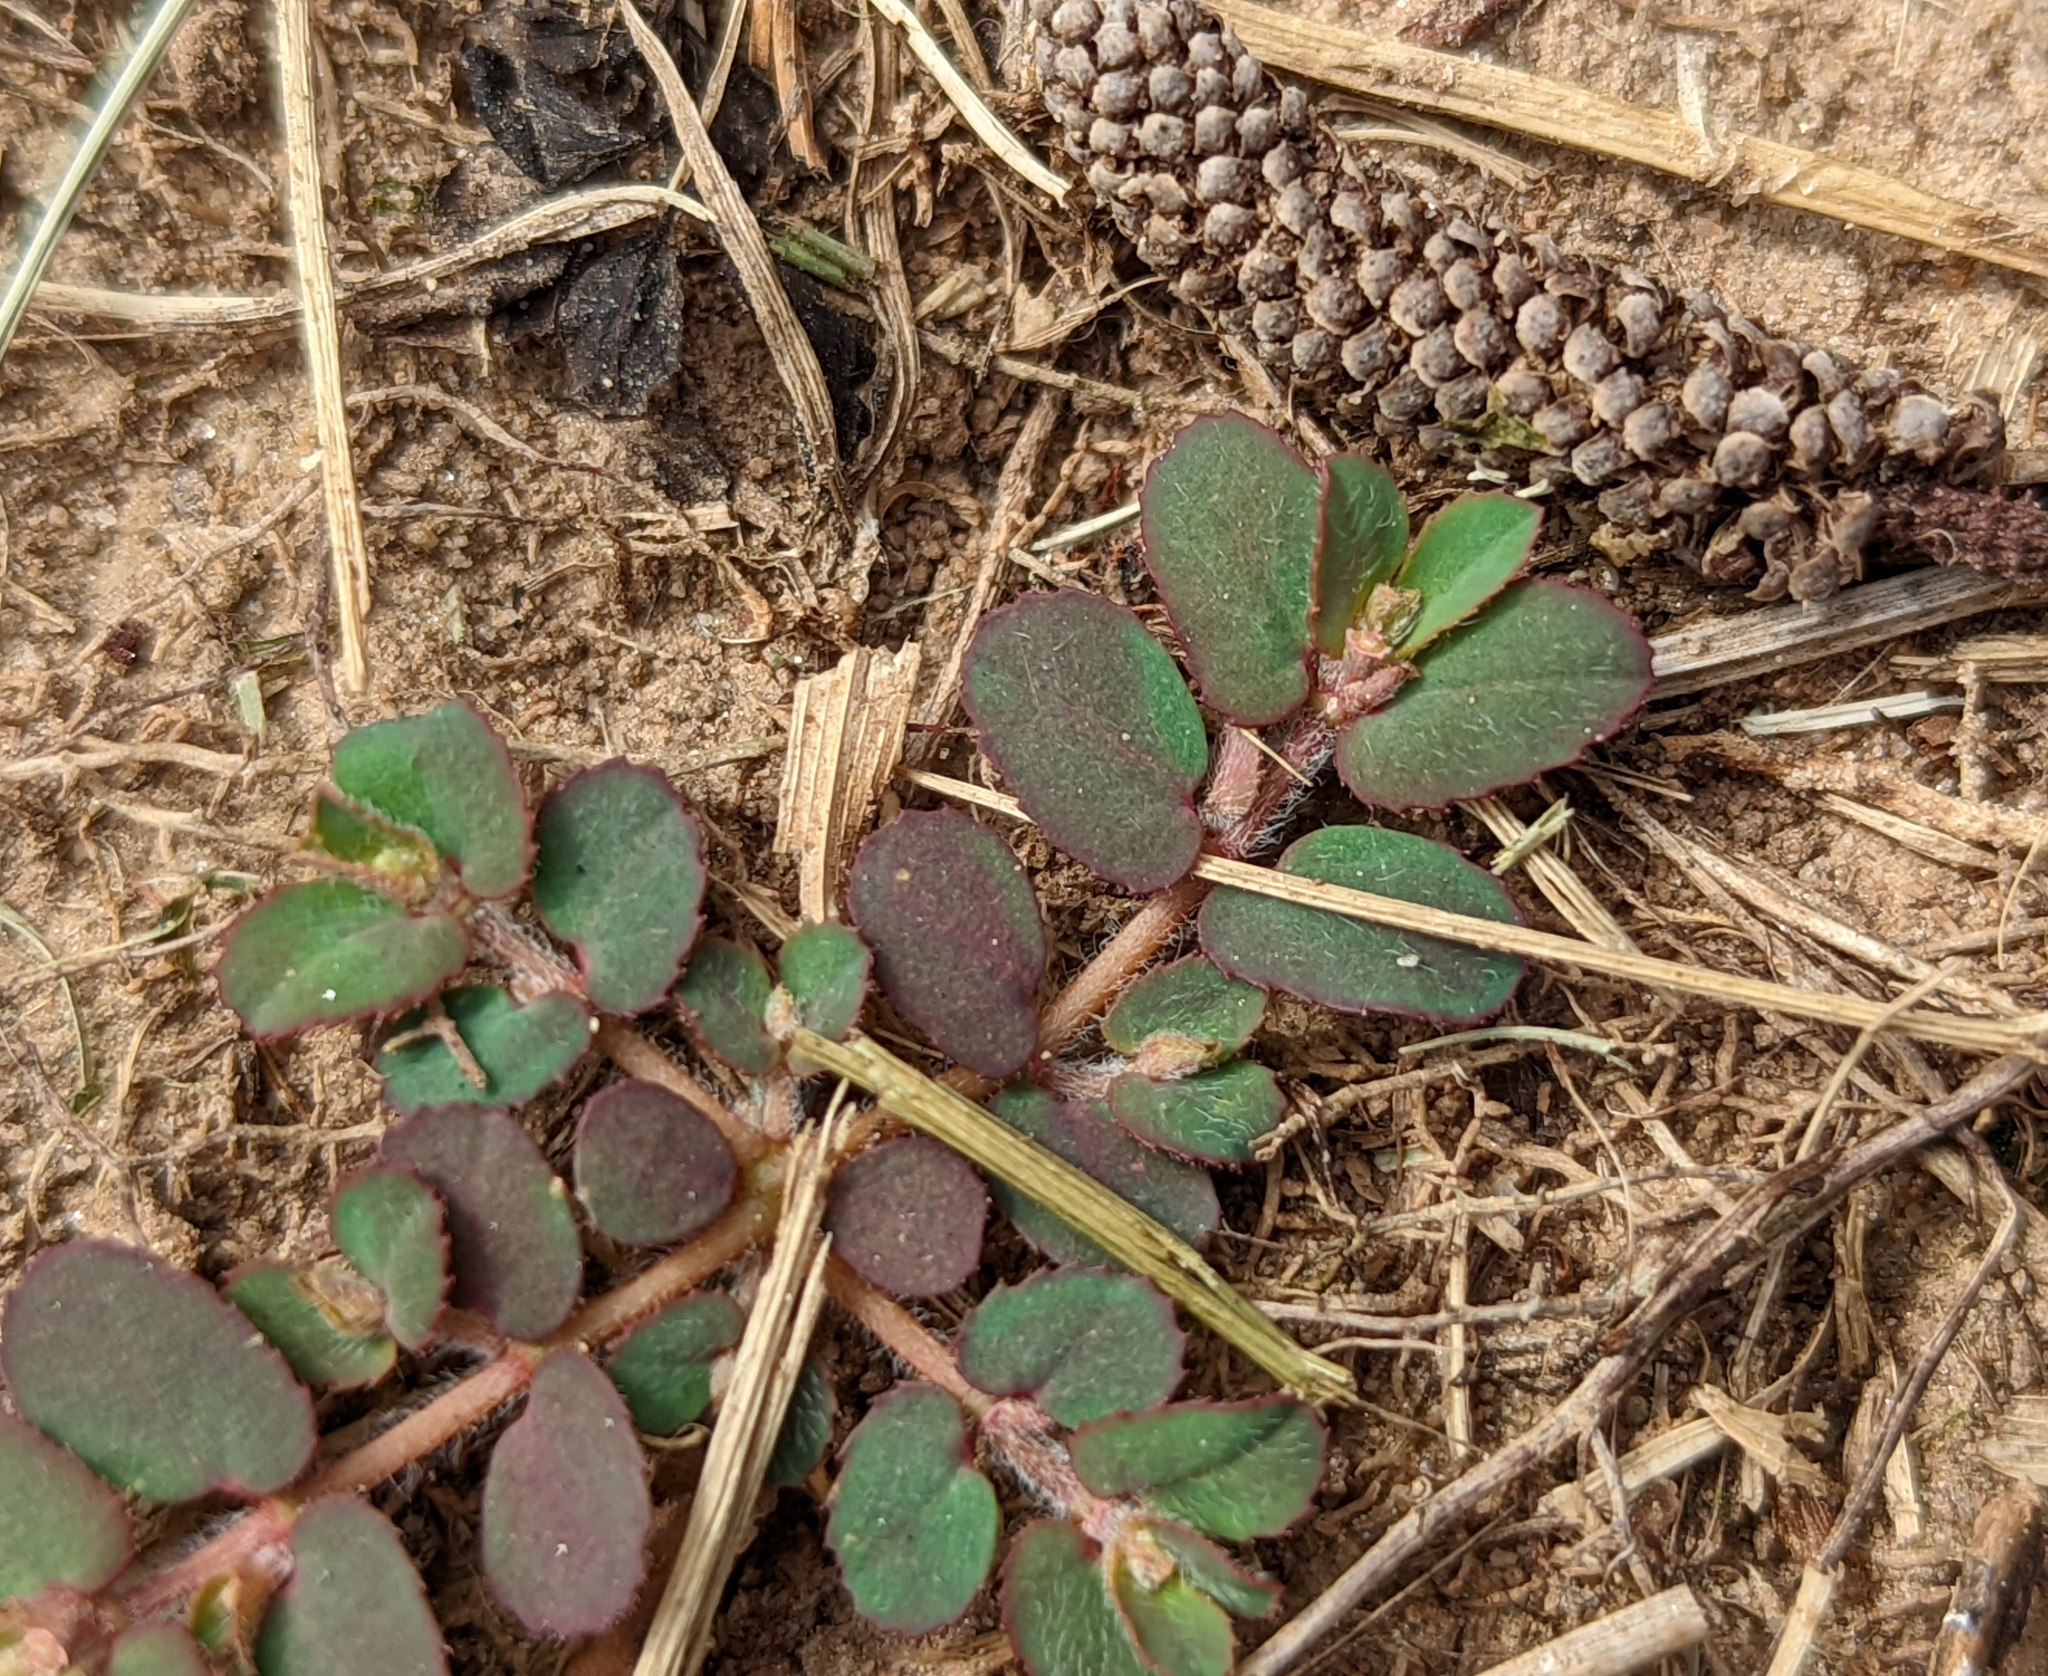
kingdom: Plantae
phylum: Tracheophyta
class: Magnoliopsida
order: Malpighiales
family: Euphorbiaceae
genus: Euphorbia
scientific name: Euphorbia maculata
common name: Spotted spurge
